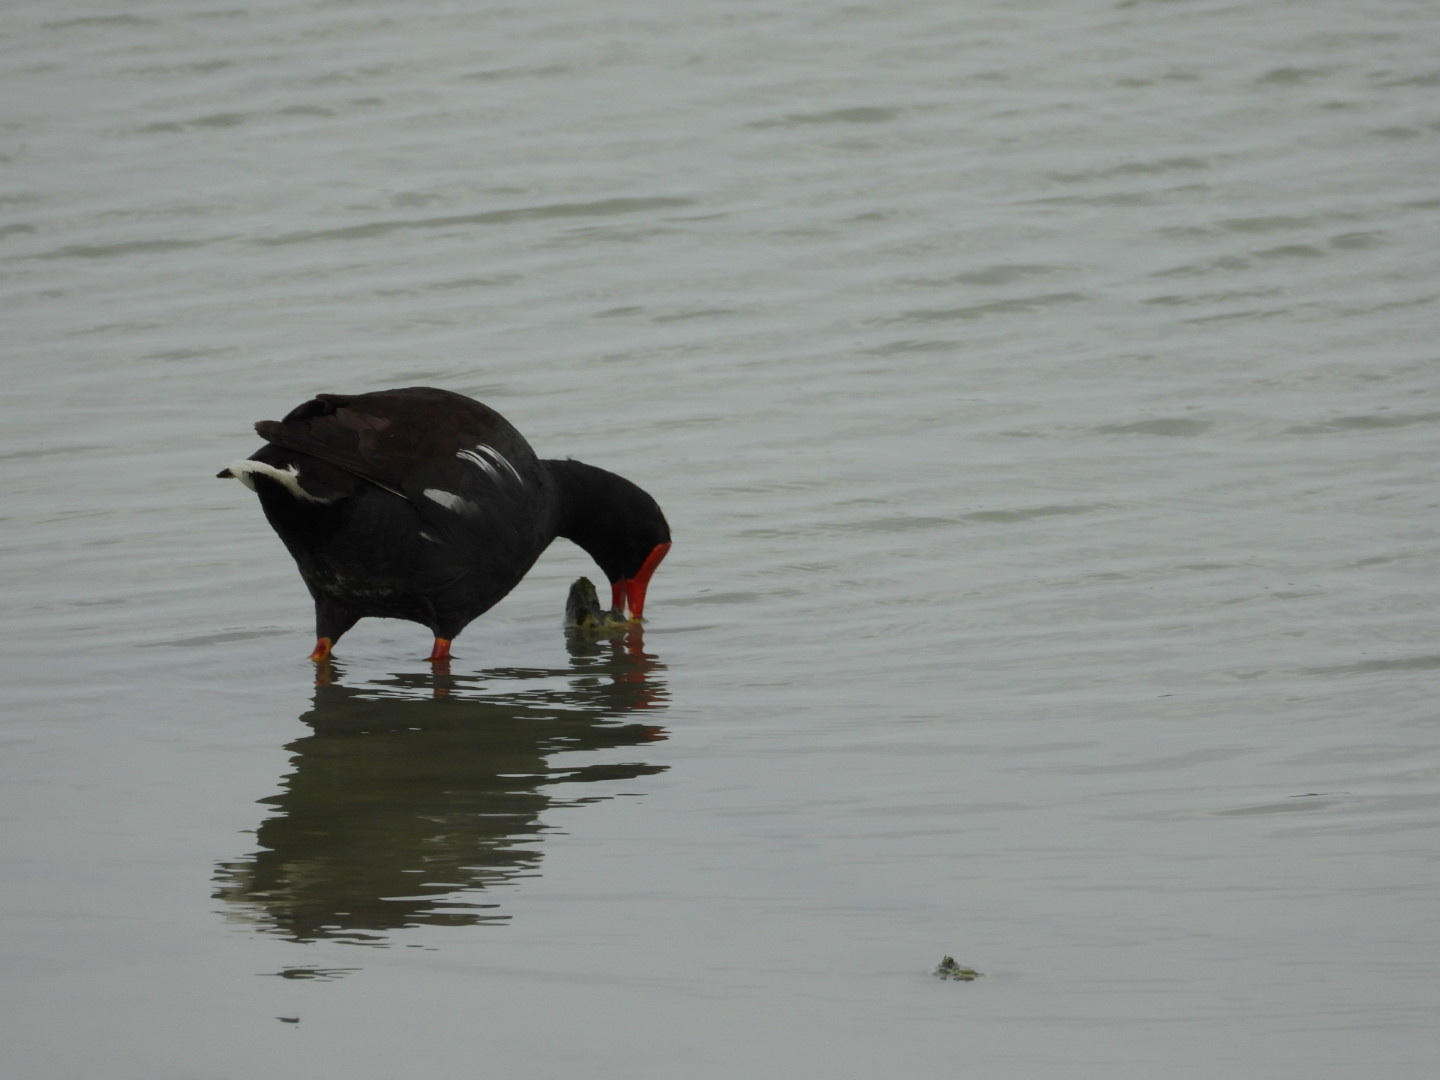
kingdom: Animalia
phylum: Chordata
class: Aves
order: Gruiformes
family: Rallidae
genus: Gallinula
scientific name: Gallinula chloropus
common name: Common moorhen
